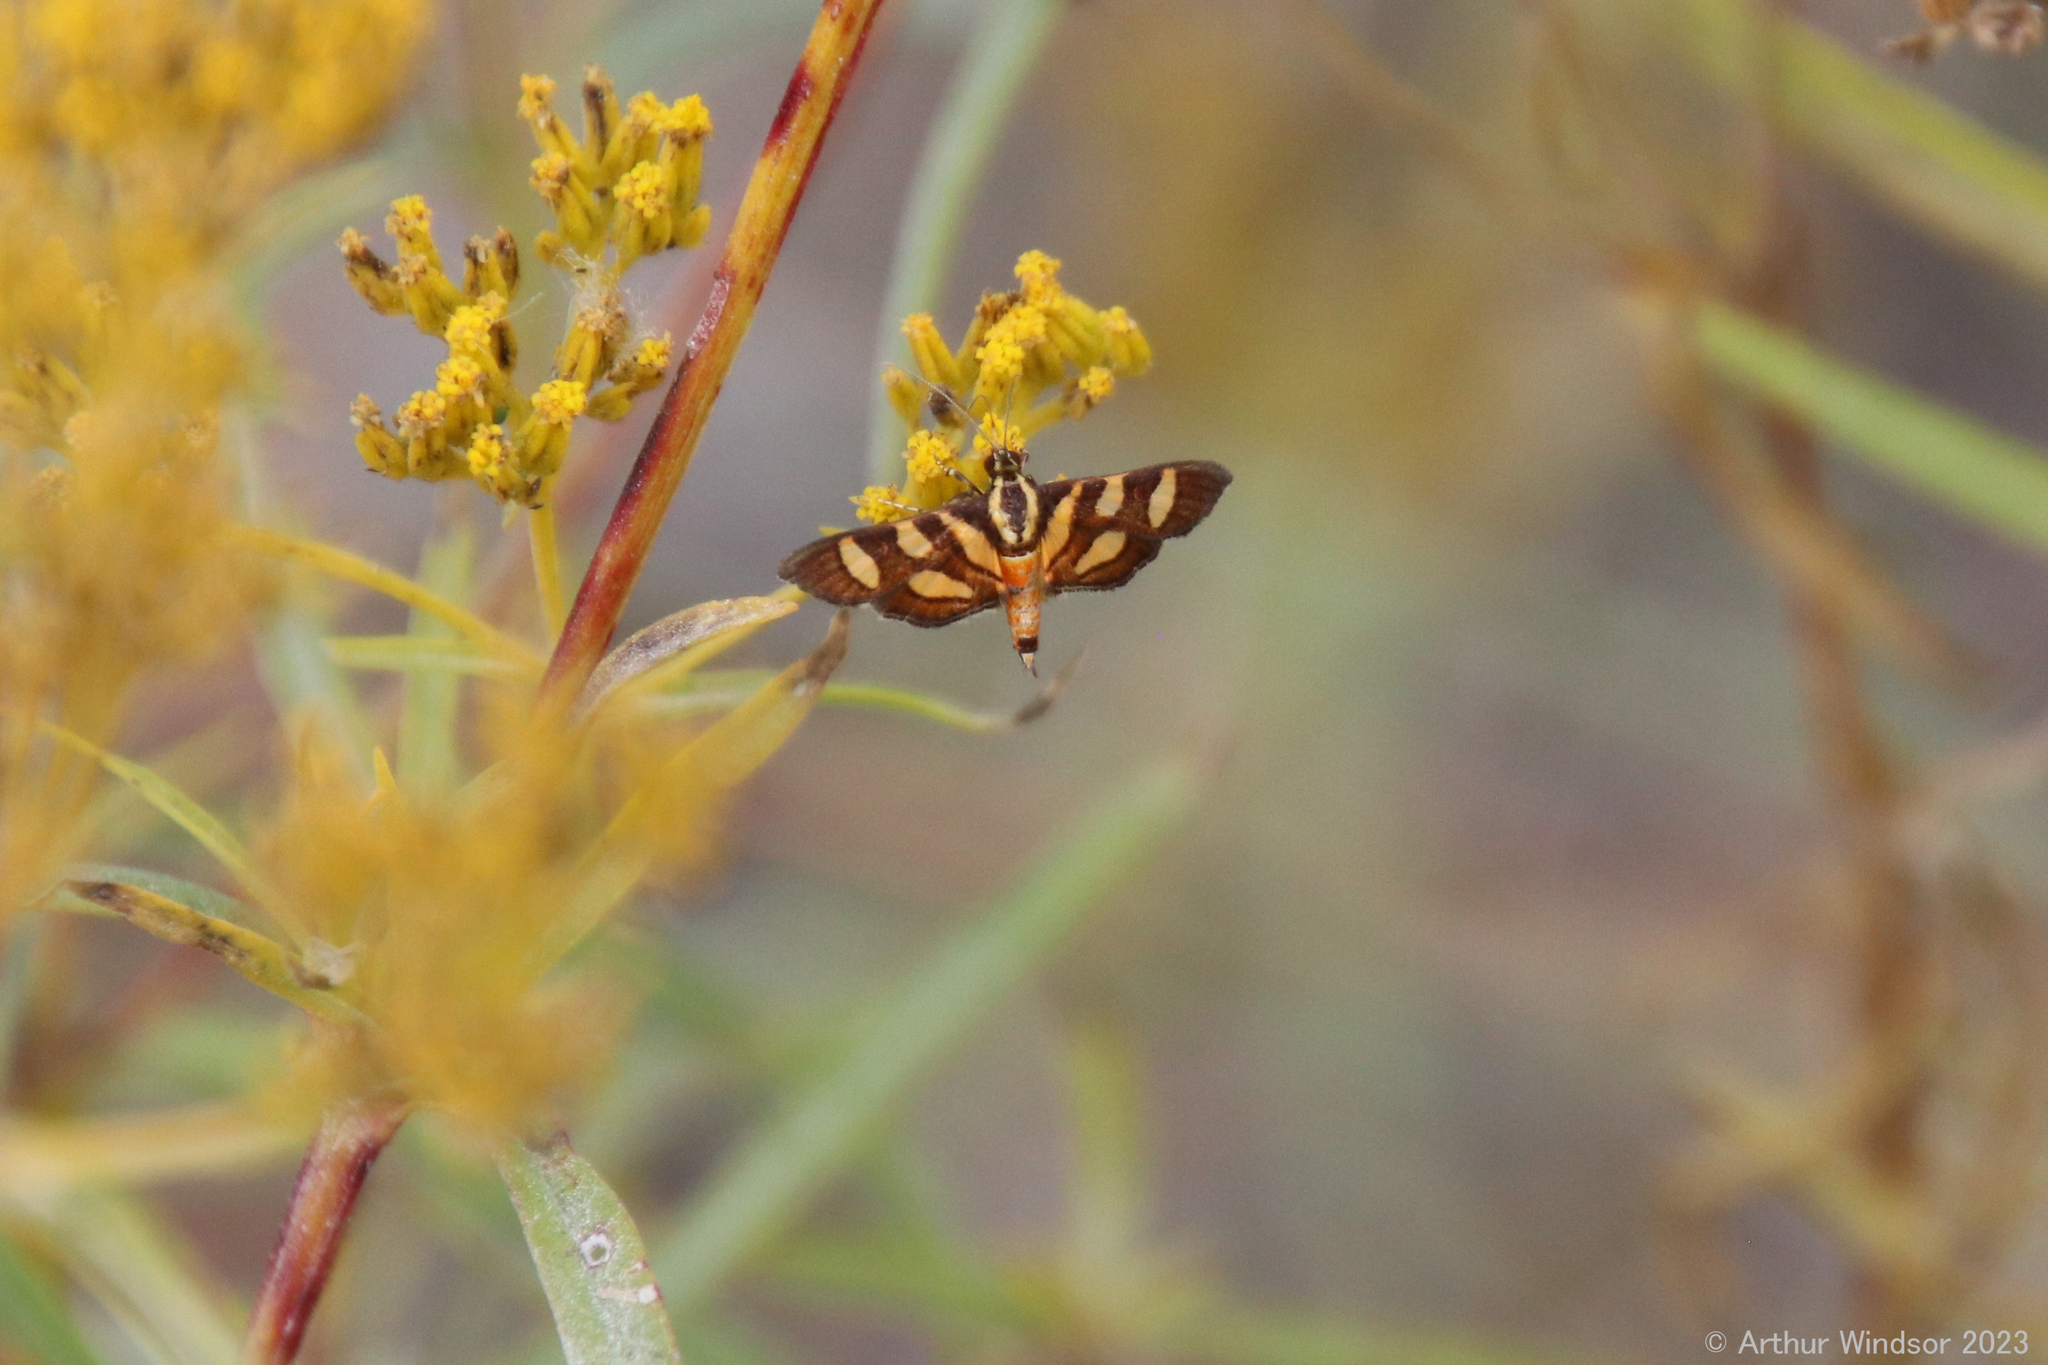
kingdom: Animalia
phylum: Arthropoda
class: Insecta
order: Lepidoptera
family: Crambidae
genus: Syngamia
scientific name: Syngamia florella
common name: Orange-spotted flower moth
